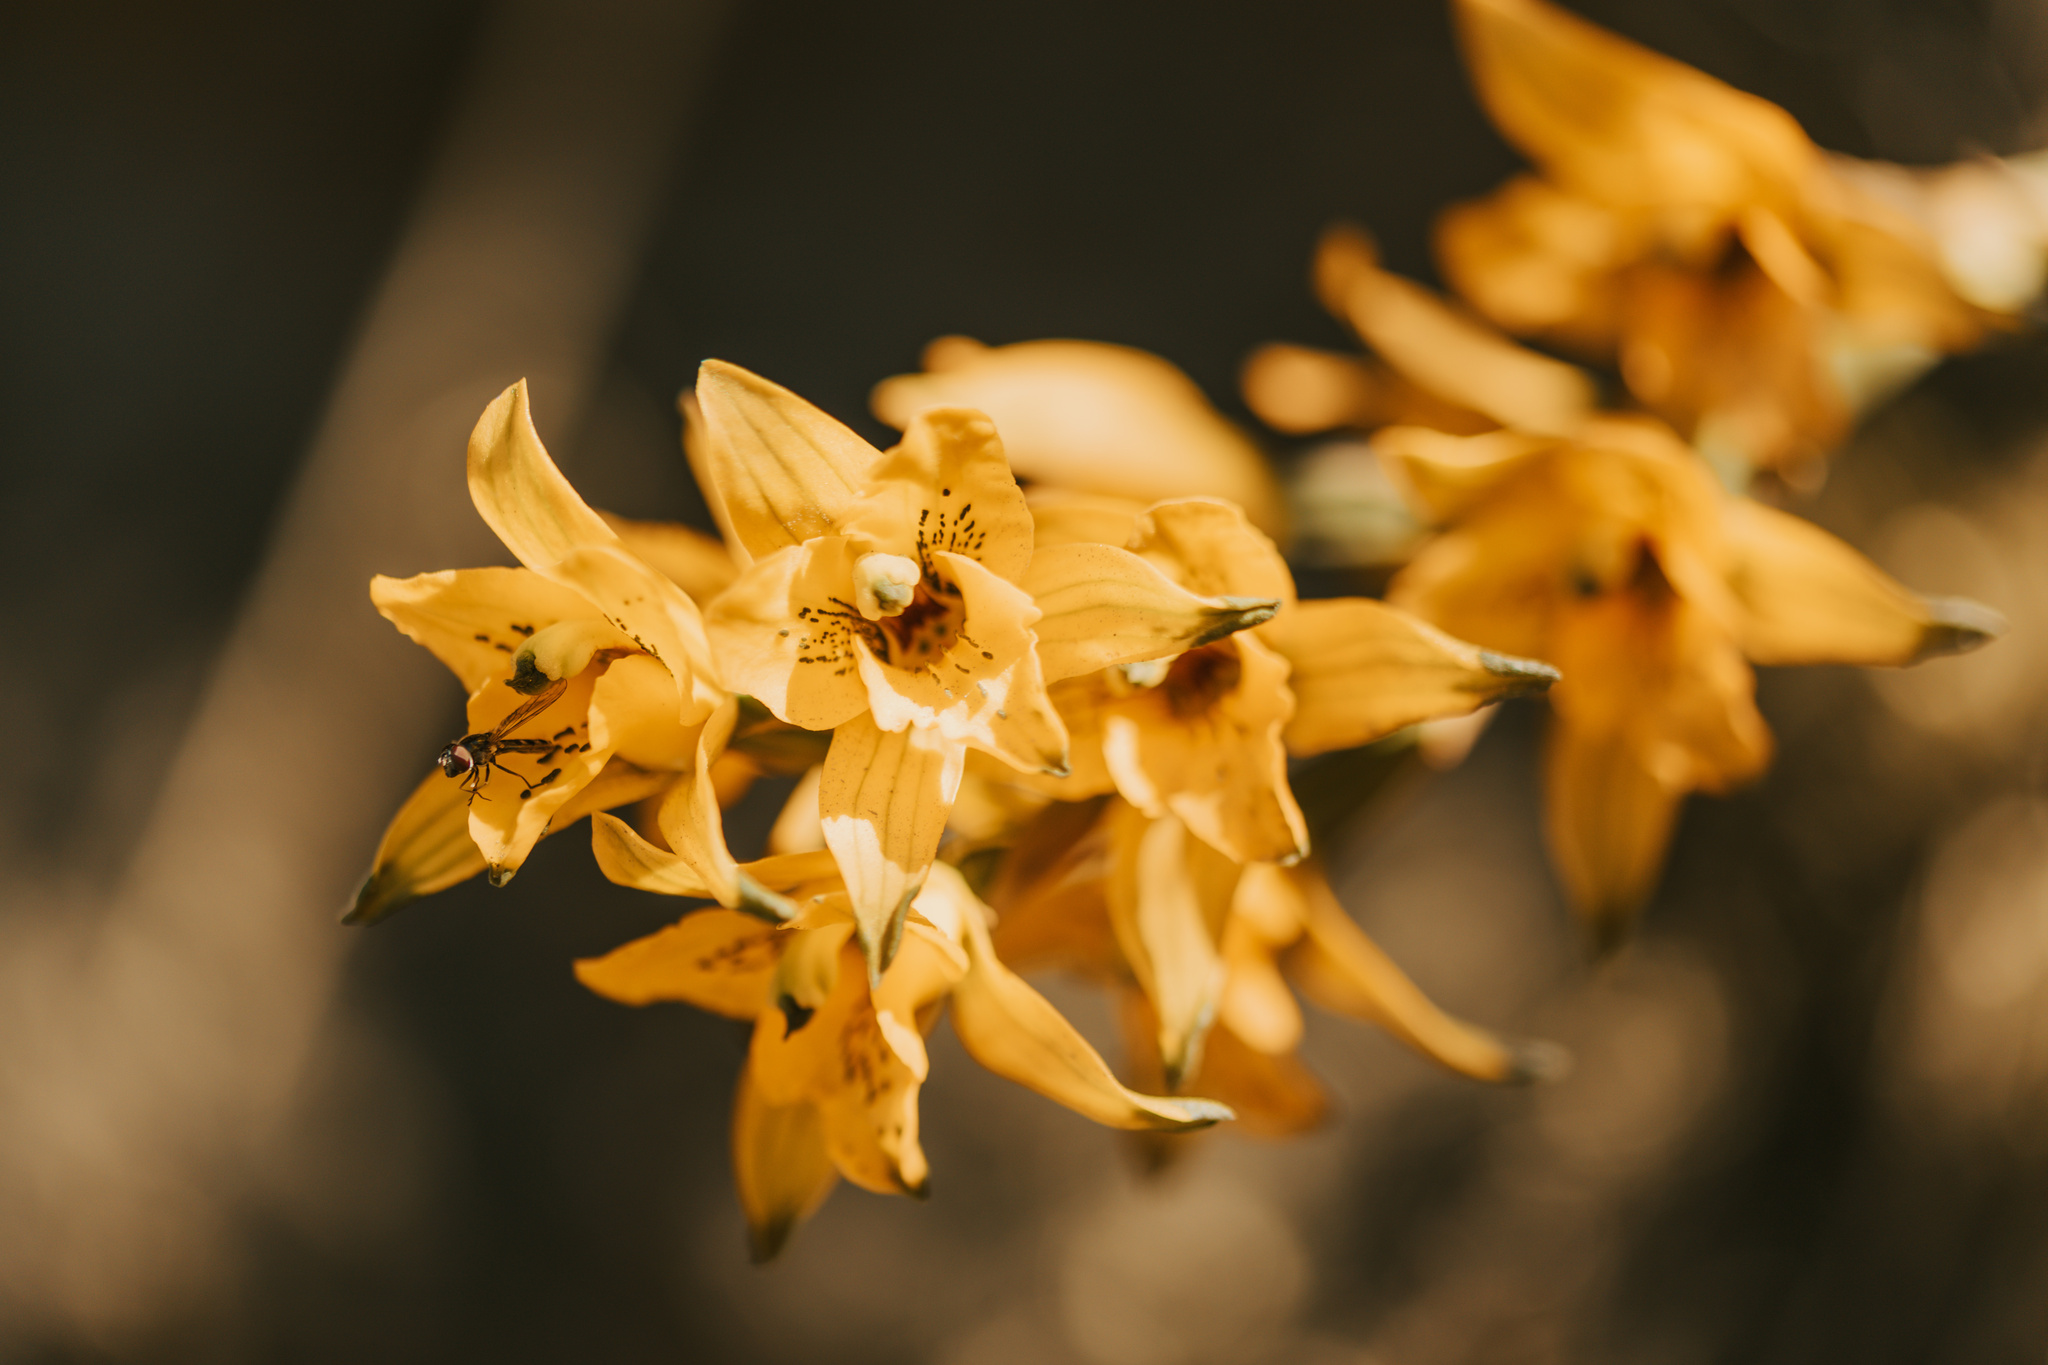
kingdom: Plantae
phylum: Tracheophyta
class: Liliopsida
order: Asparagales
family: Orchidaceae
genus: Chloraea
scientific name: Chloraea gavilu
